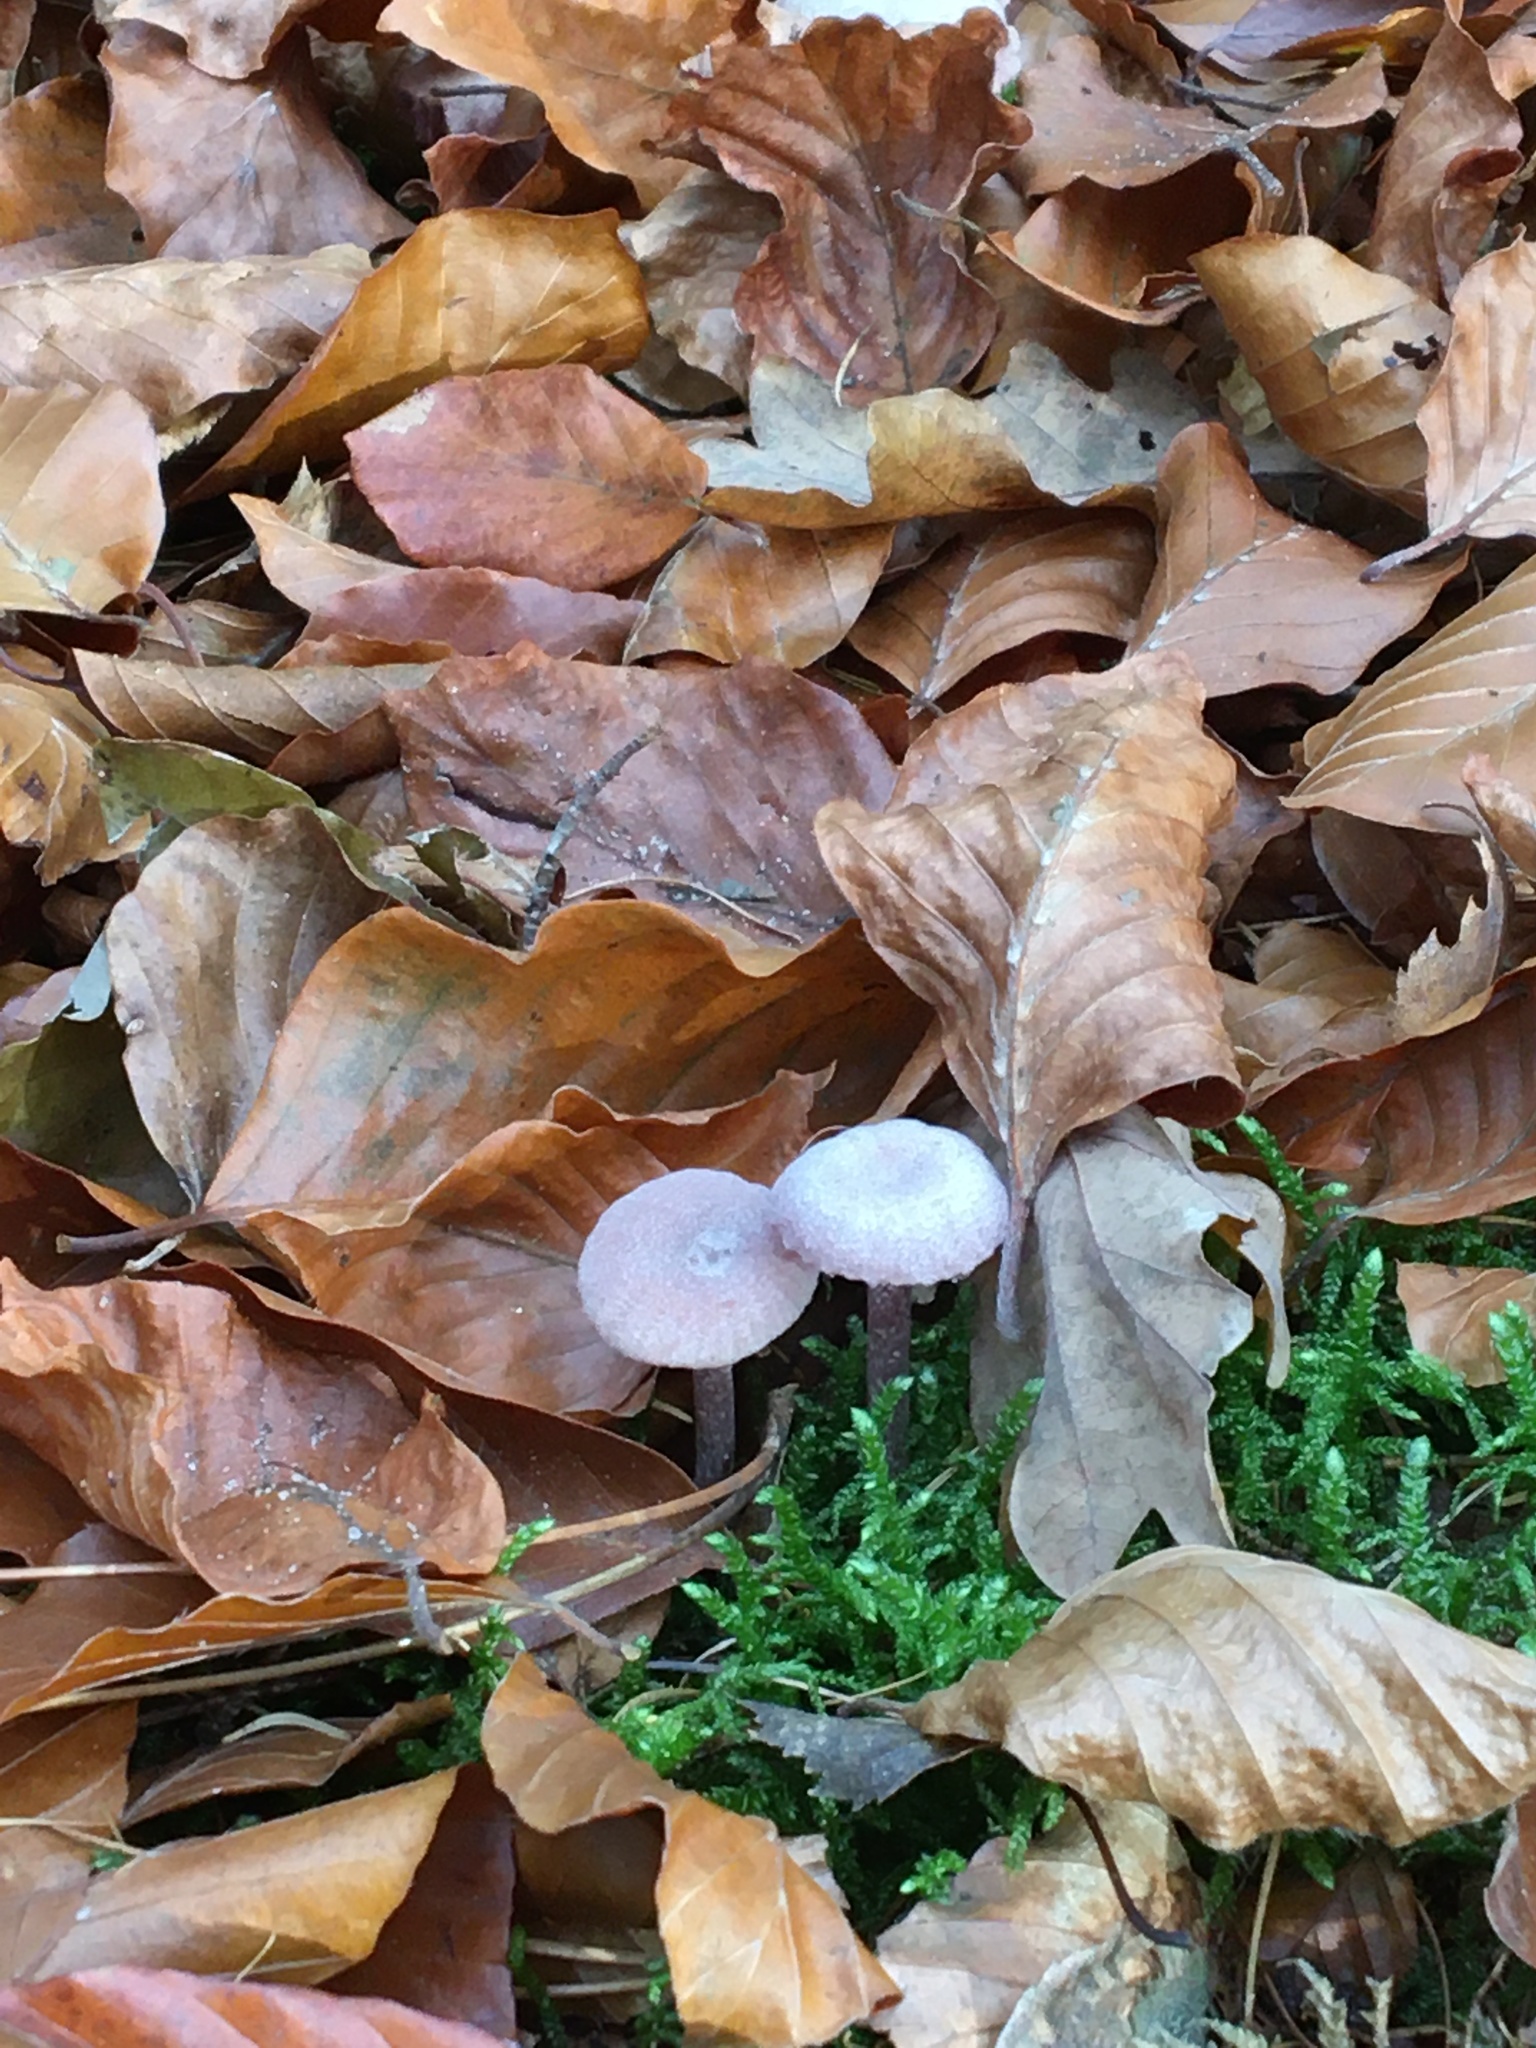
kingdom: Fungi
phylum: Basidiomycota
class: Agaricomycetes
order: Agaricales
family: Hydnangiaceae
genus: Laccaria
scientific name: Laccaria amethystina
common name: Amethyst deceiver
